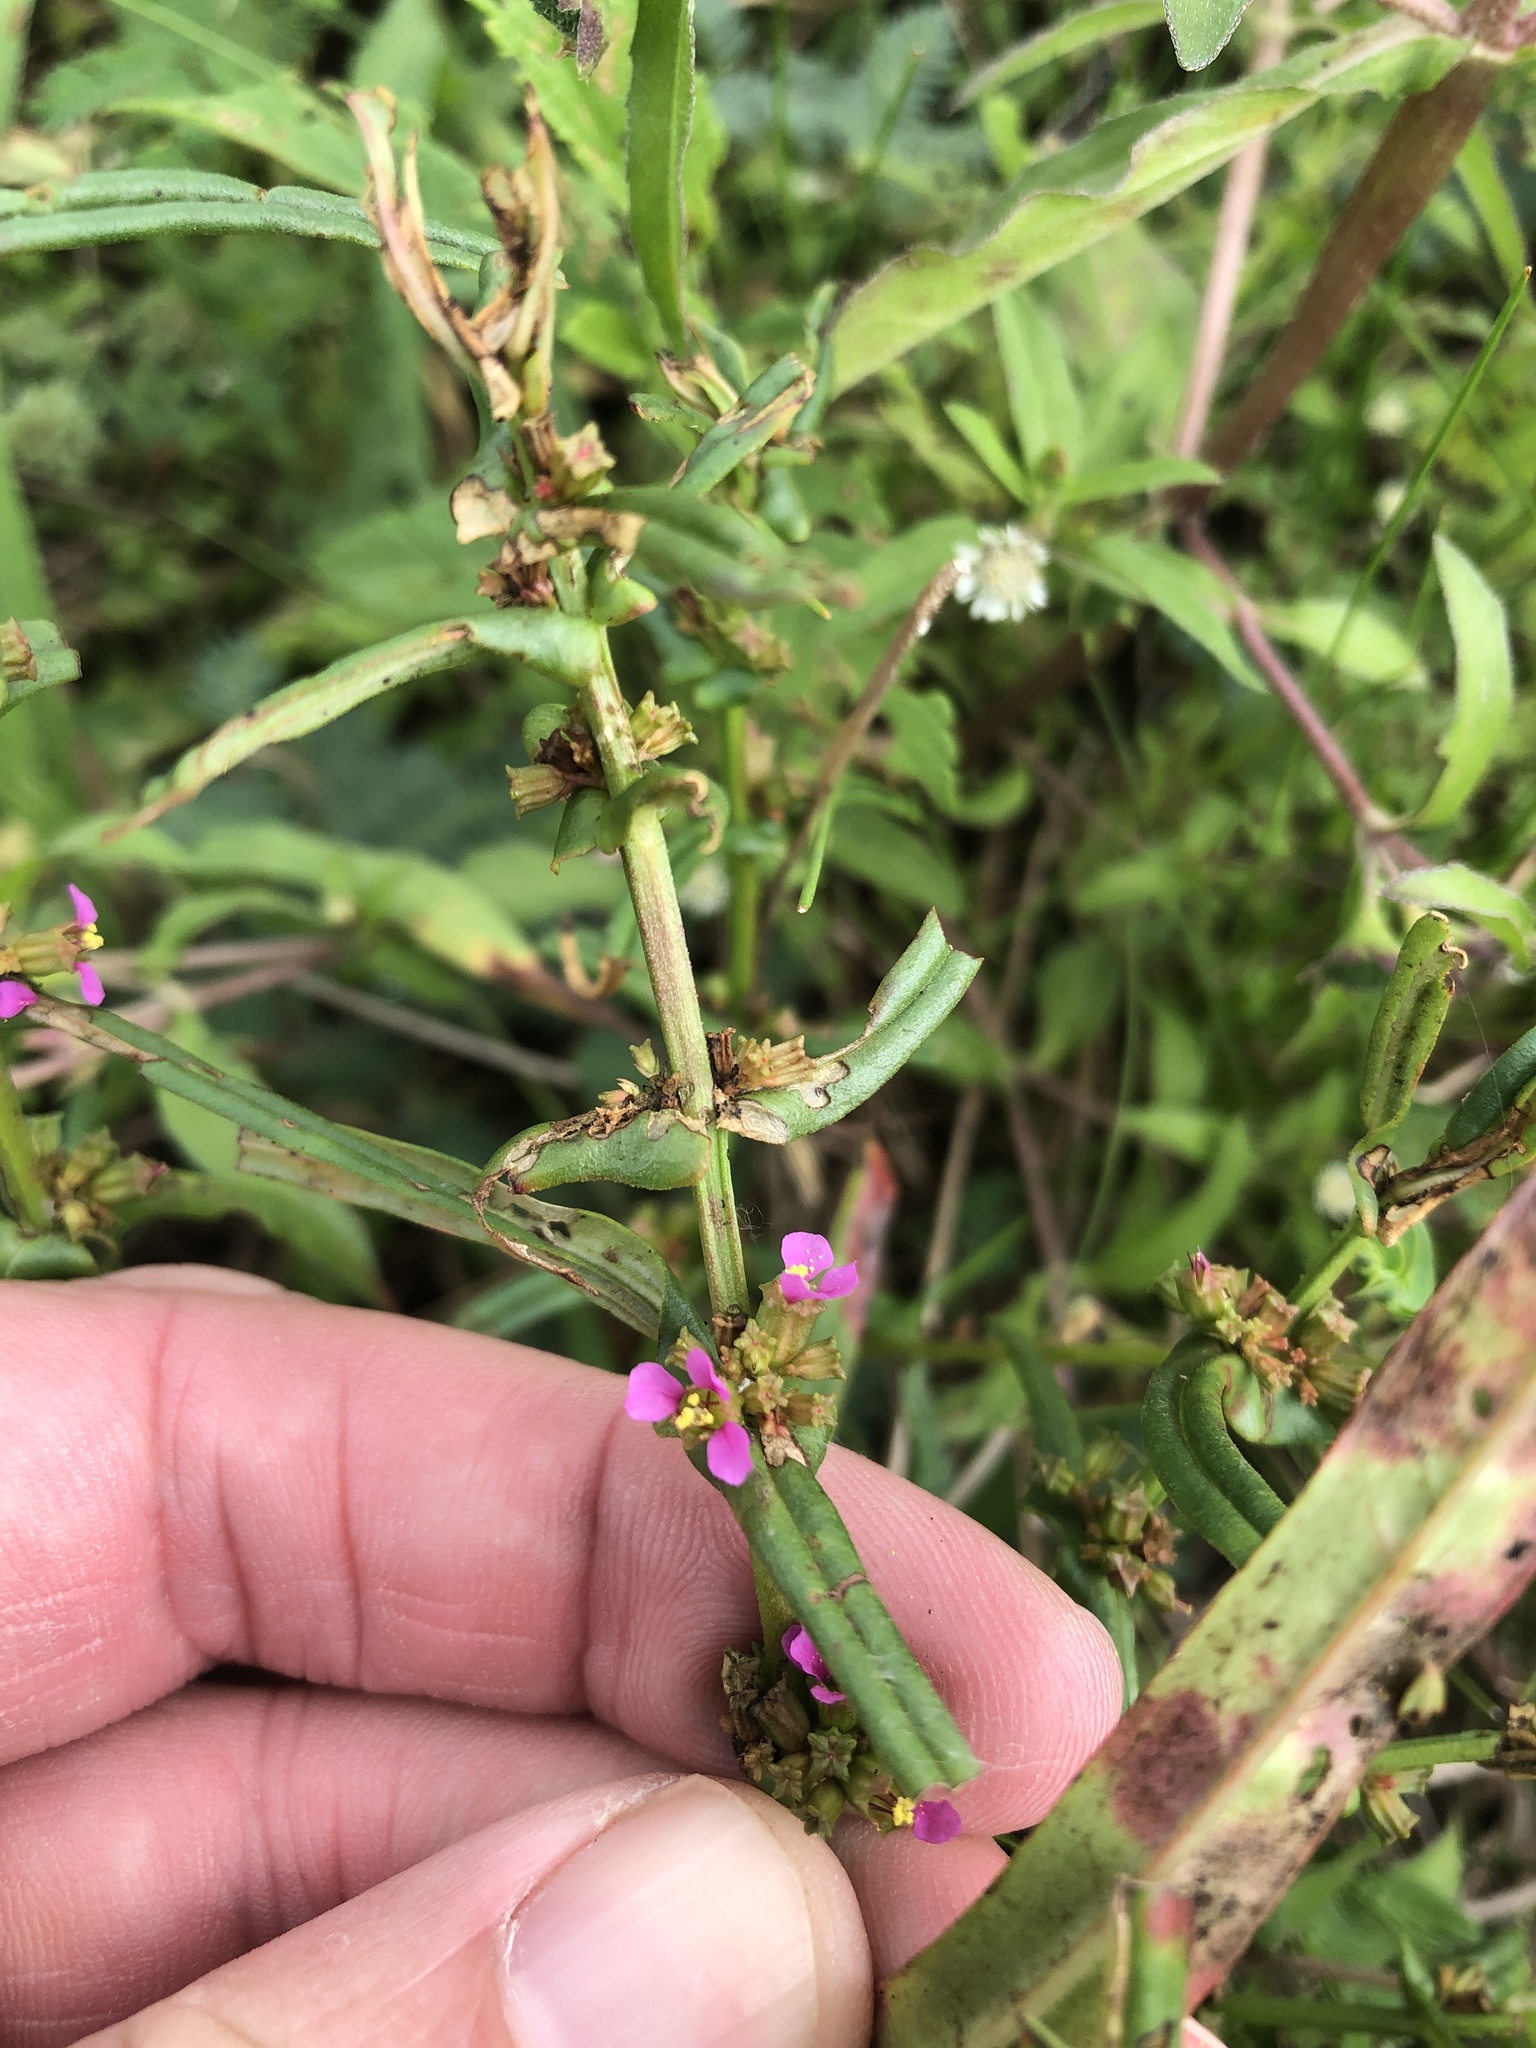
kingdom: Plantae
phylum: Tracheophyta
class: Magnoliopsida
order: Myrtales
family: Lythraceae
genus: Ammannia
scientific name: Ammannia coccinea
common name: Valley redstem
